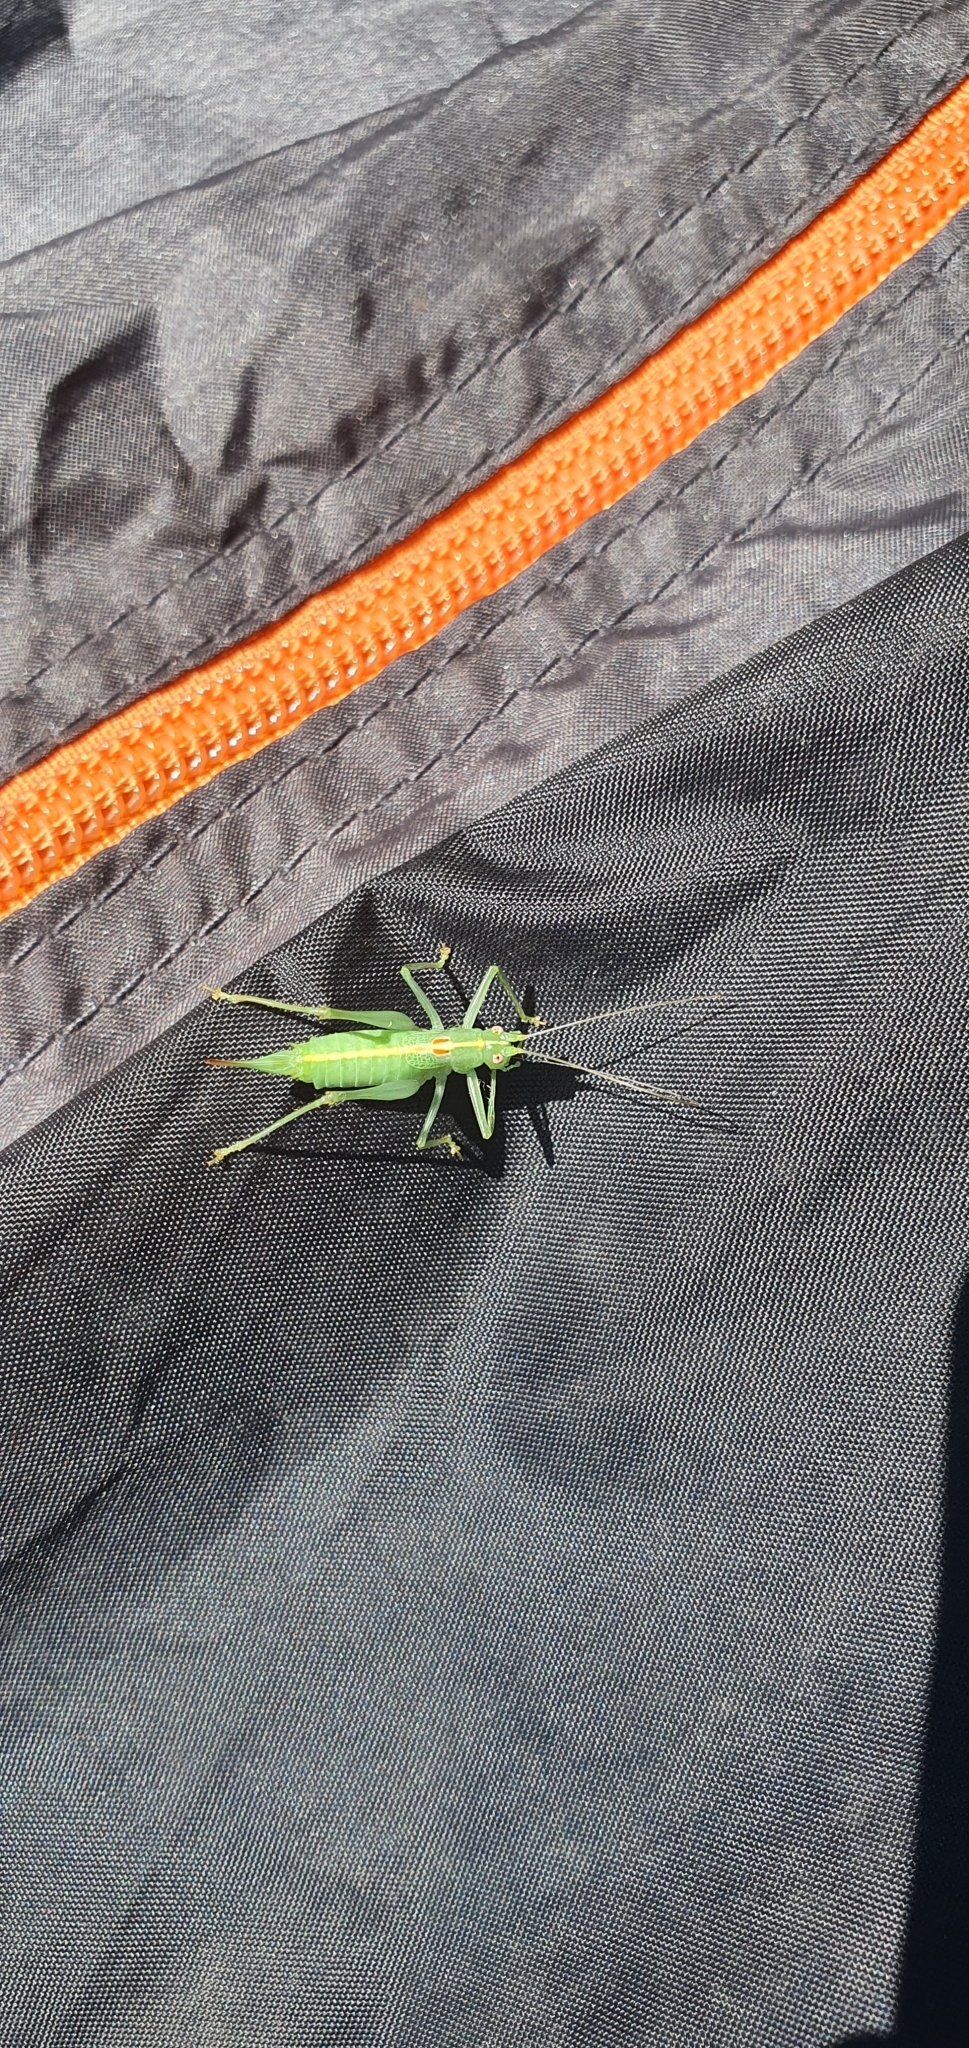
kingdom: Animalia
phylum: Arthropoda
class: Insecta
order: Orthoptera
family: Tettigoniidae
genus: Meconema
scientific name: Meconema meridionale
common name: Southern oak bush-cricket
